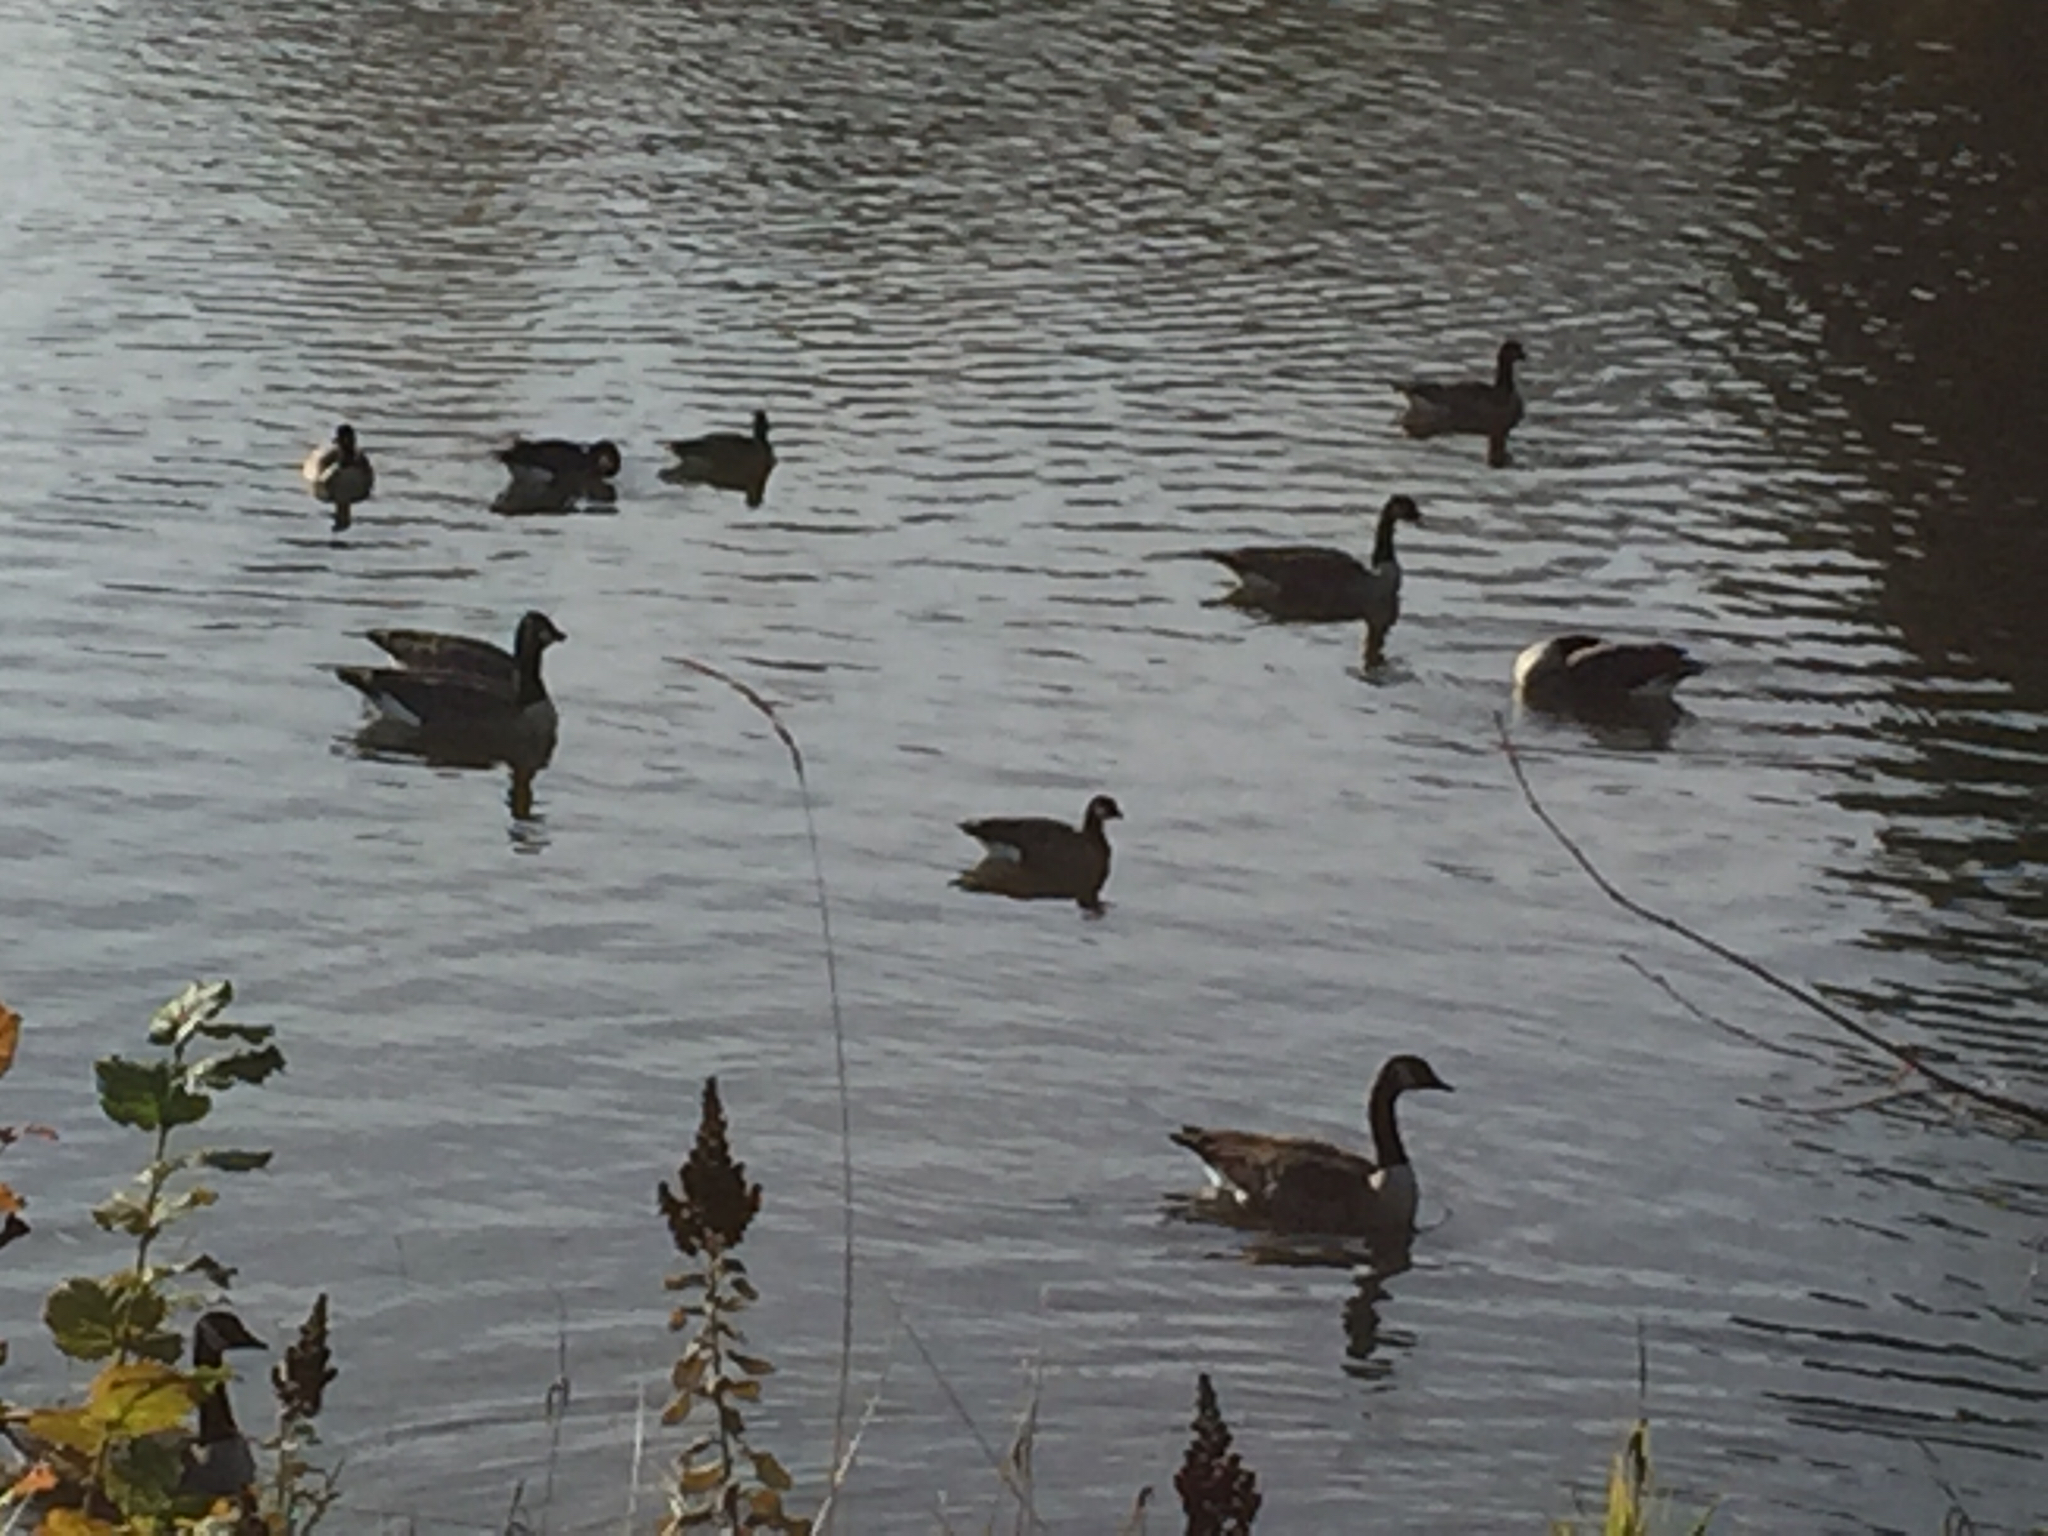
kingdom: Animalia
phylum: Chordata
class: Aves
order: Anseriformes
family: Anatidae
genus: Branta
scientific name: Branta hutchinsii
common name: Cackling goose
